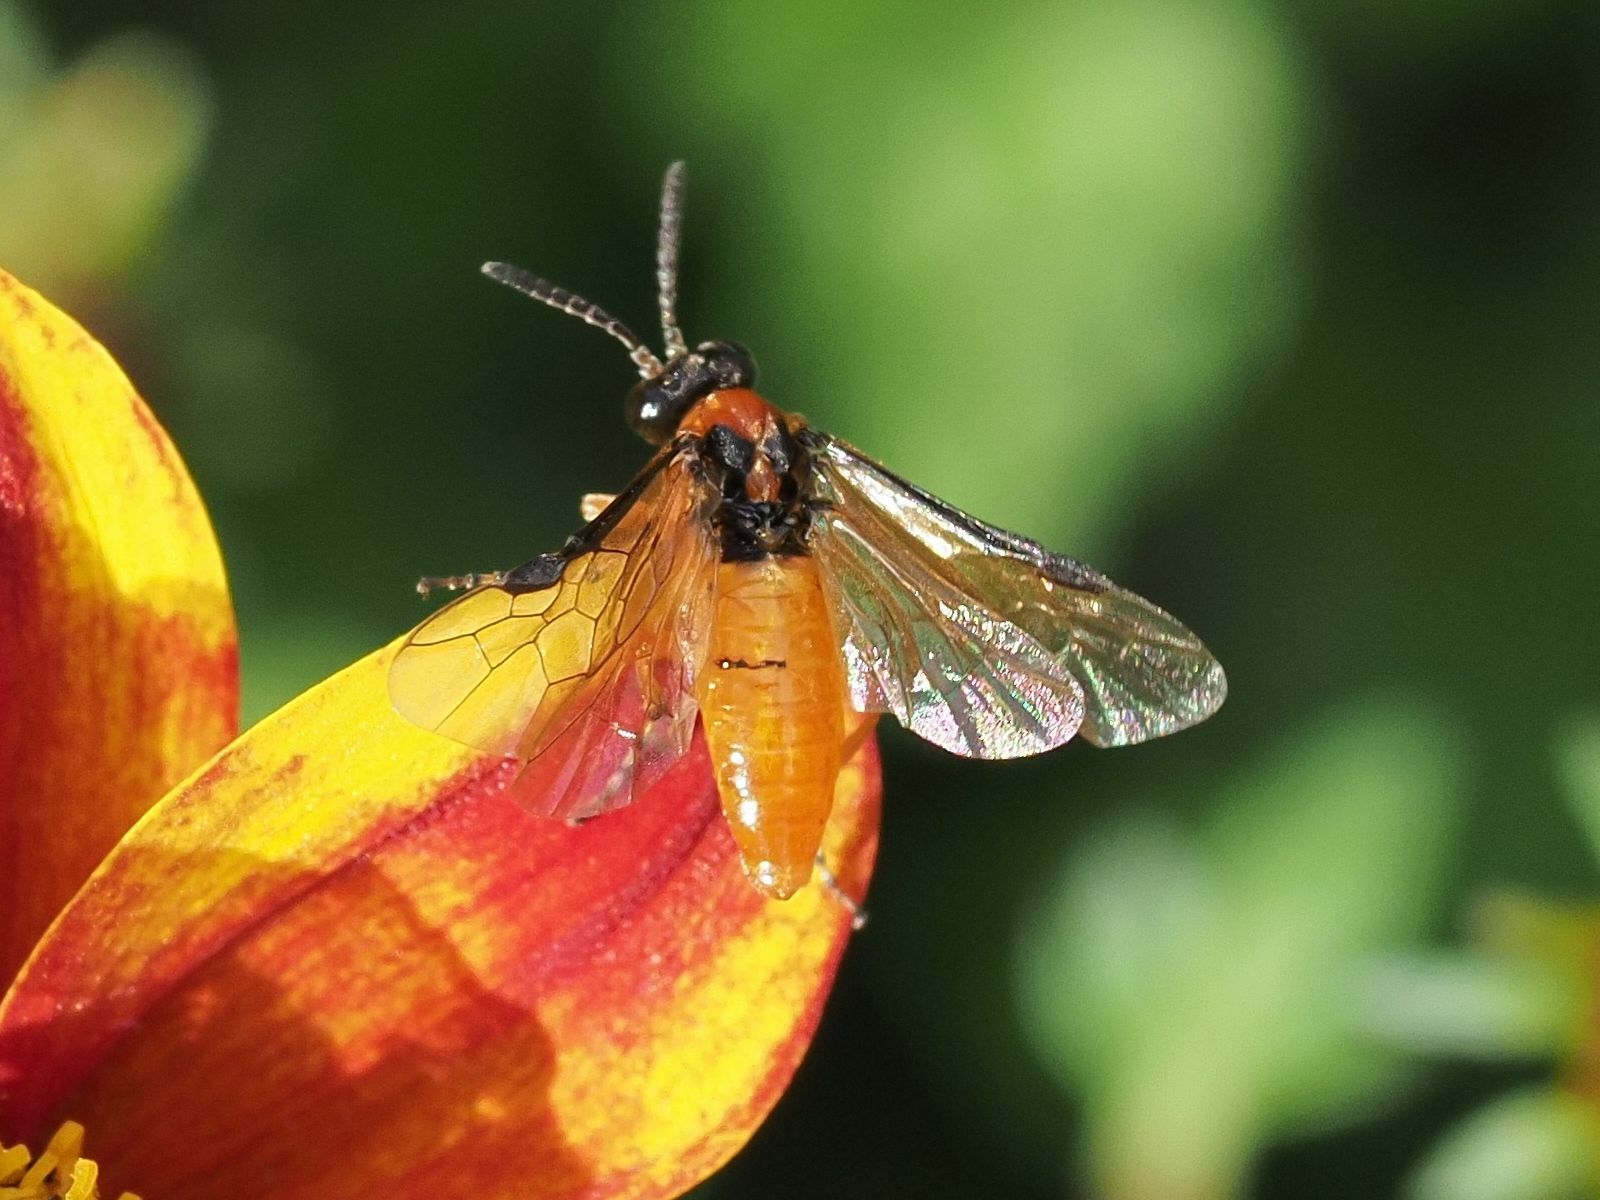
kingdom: Animalia
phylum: Arthropoda
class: Insecta
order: Hymenoptera
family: Tenthredinidae
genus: Athalia
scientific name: Athalia rosae
